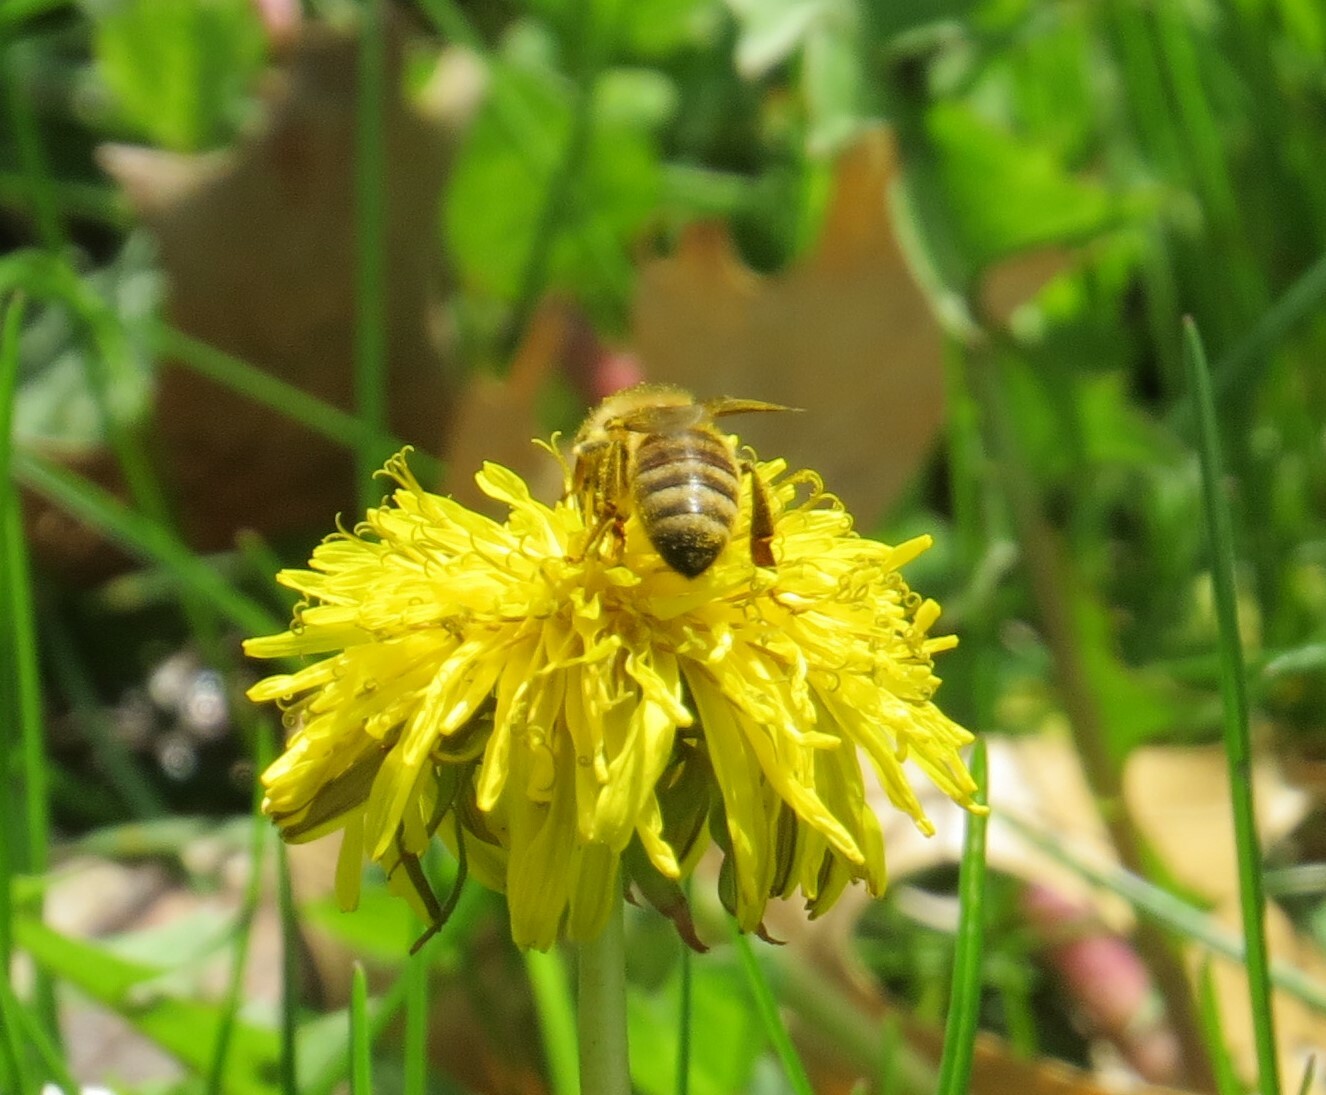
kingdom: Animalia
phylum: Arthropoda
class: Insecta
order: Hymenoptera
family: Apidae
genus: Apis
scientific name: Apis mellifera
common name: Honey bee
